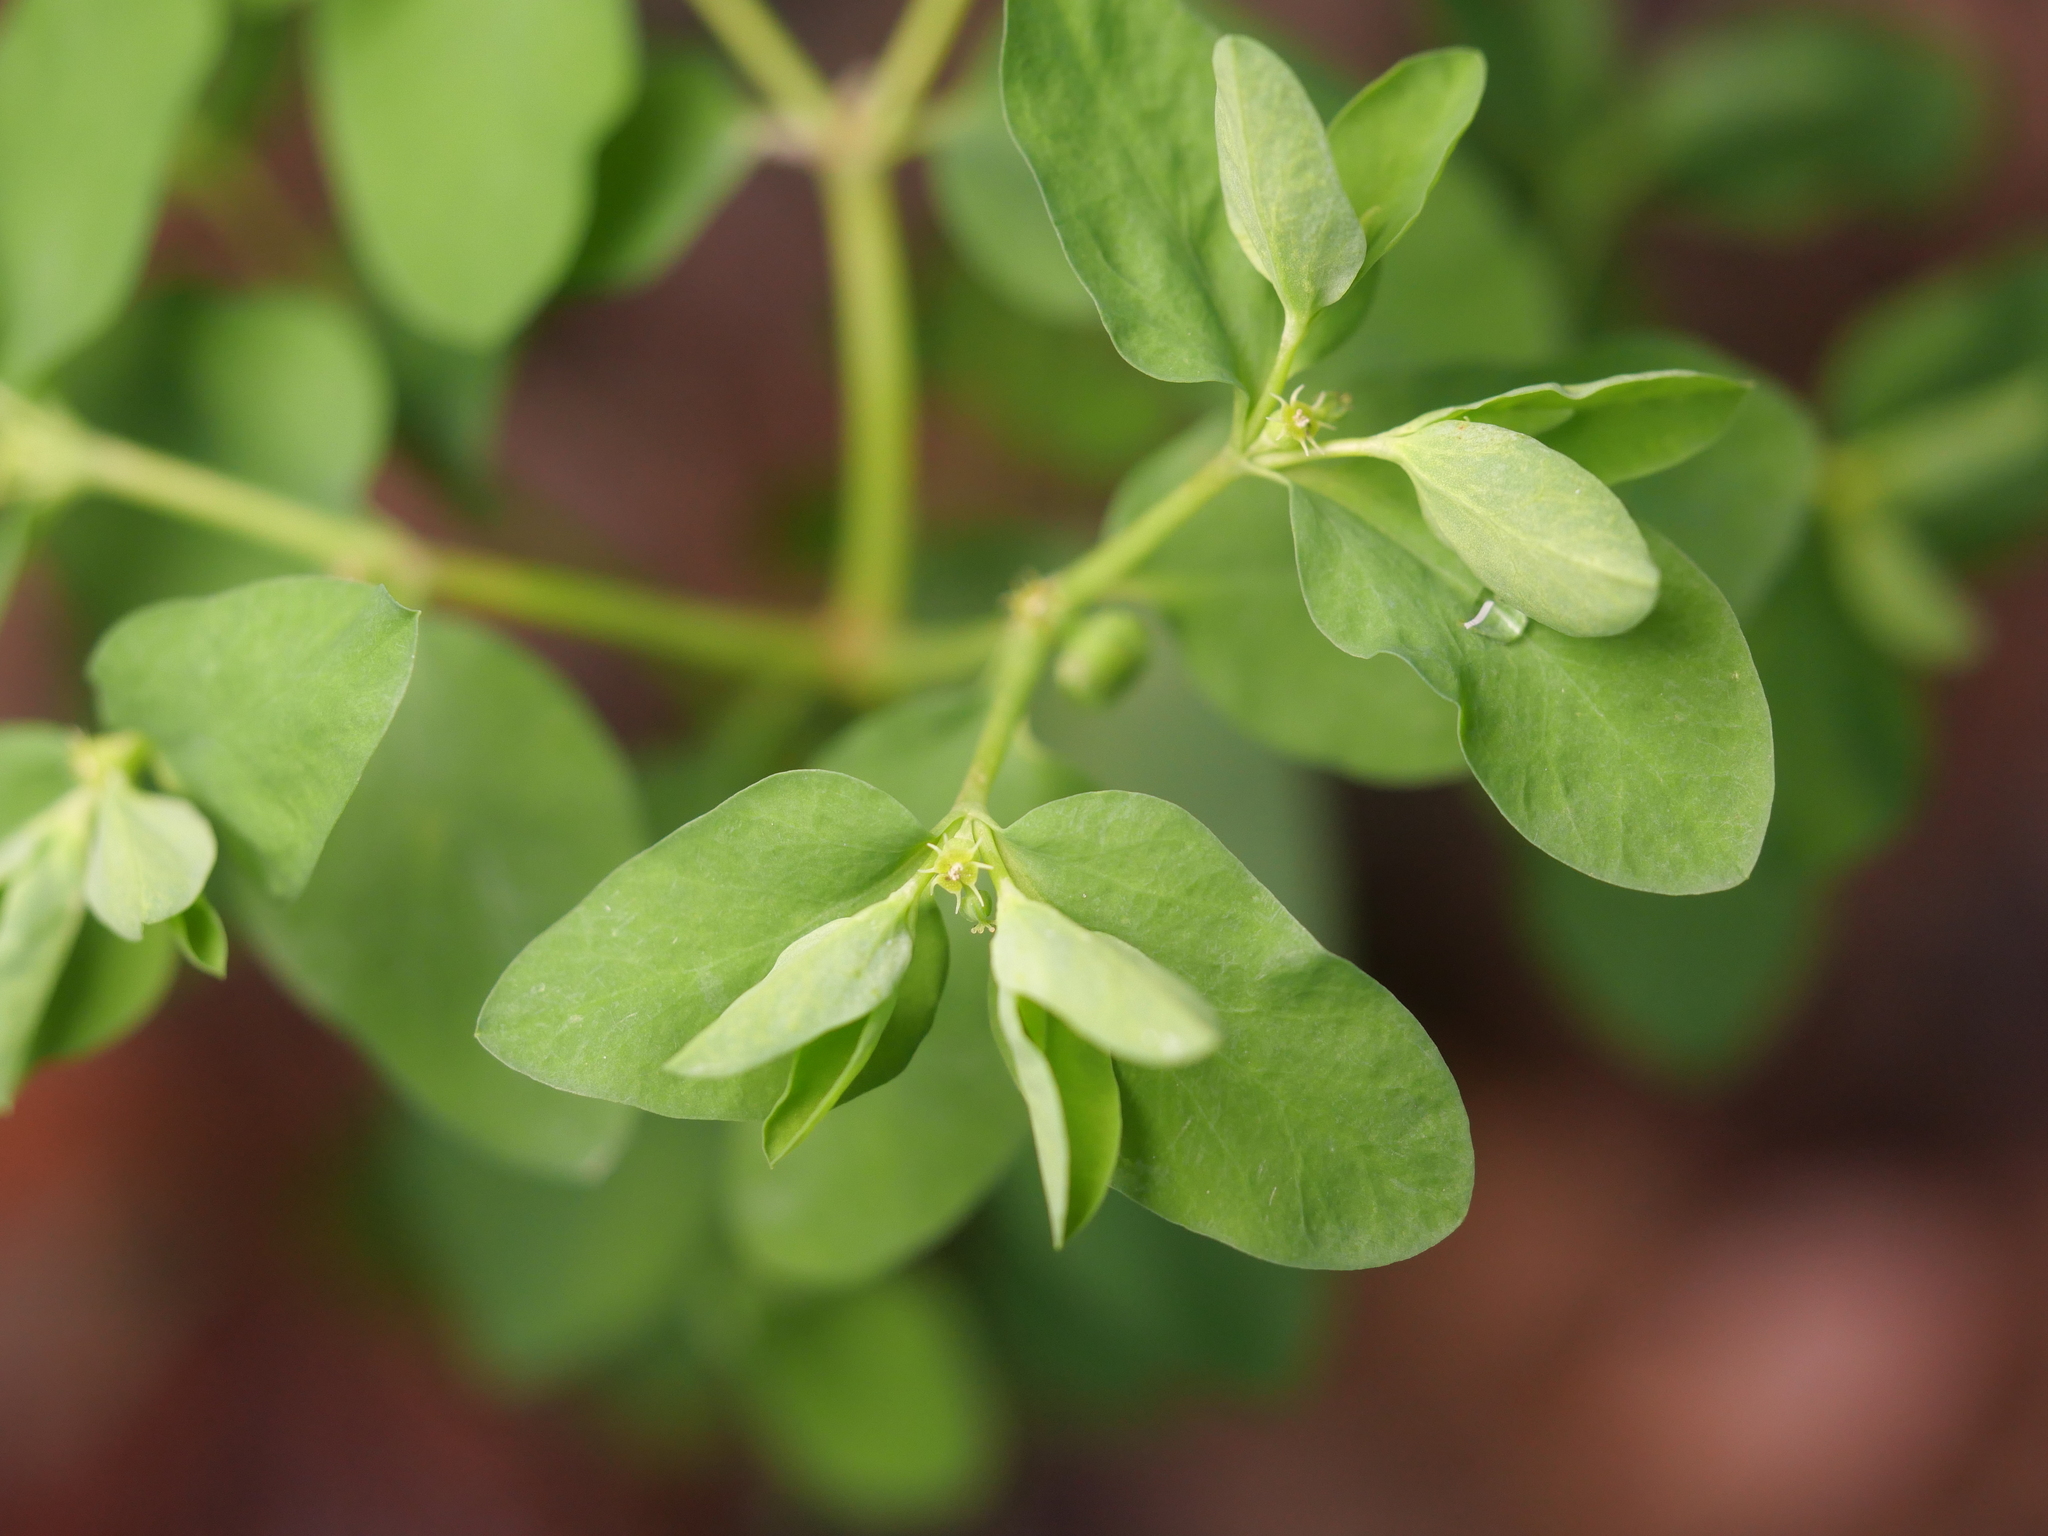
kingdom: Plantae
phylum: Tracheophyta
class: Magnoliopsida
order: Malpighiales
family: Euphorbiaceae
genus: Euphorbia
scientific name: Euphorbia peplus
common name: Petty spurge
